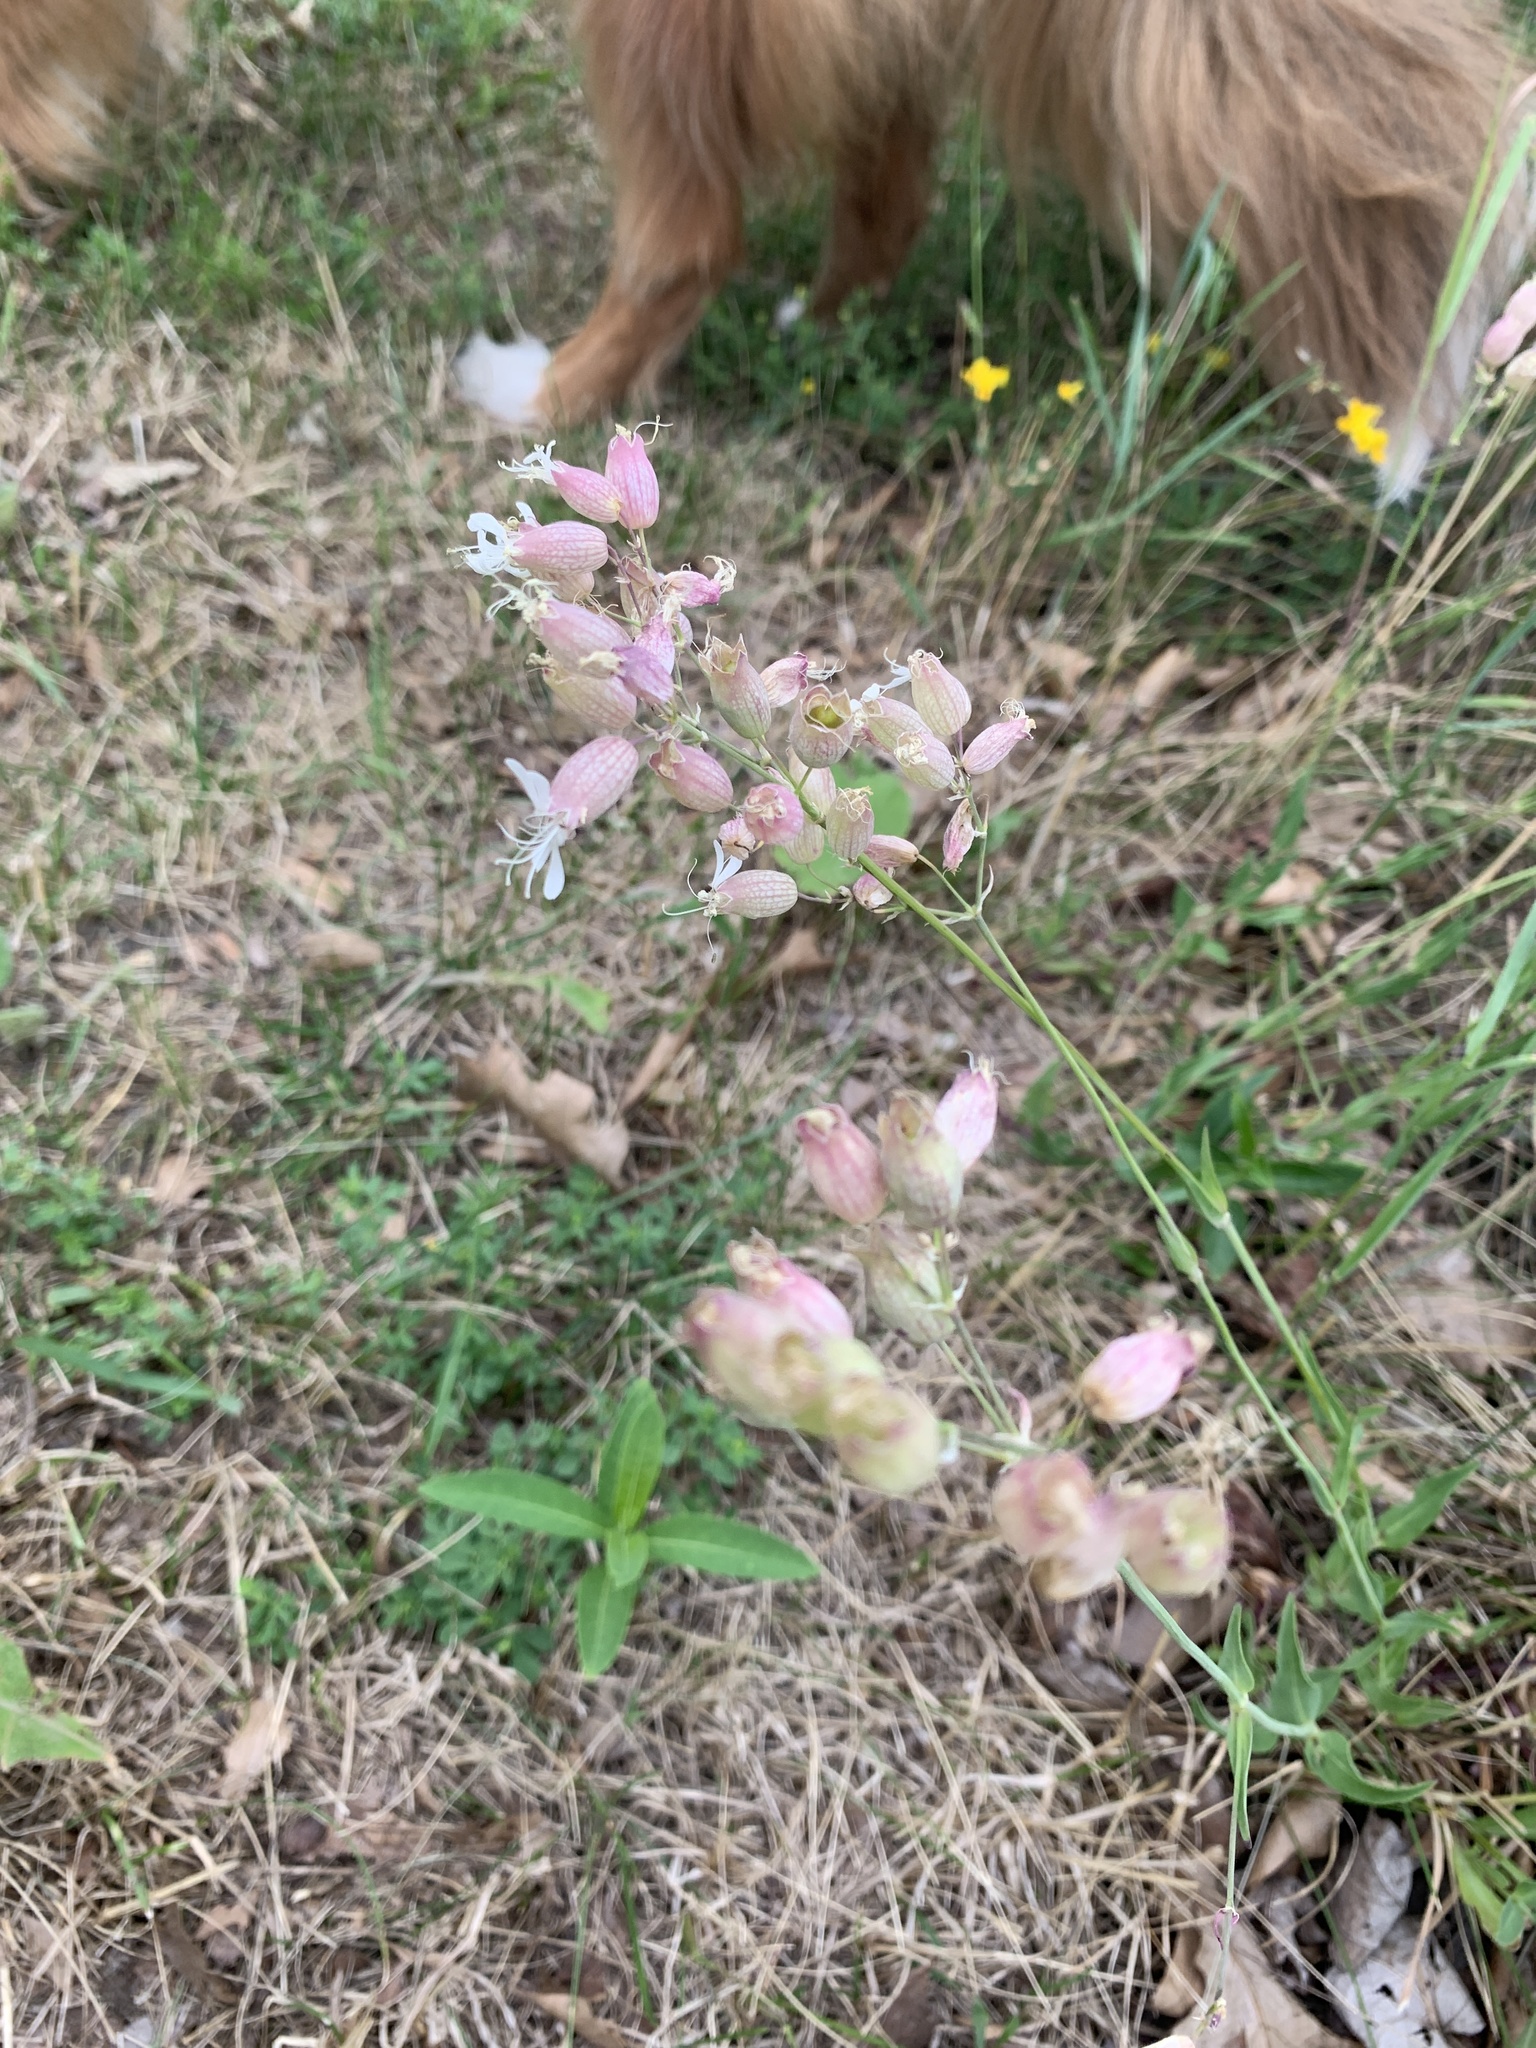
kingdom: Plantae
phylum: Tracheophyta
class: Magnoliopsida
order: Caryophyllales
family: Caryophyllaceae
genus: Silene
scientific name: Silene vulgaris
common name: Bladder campion
